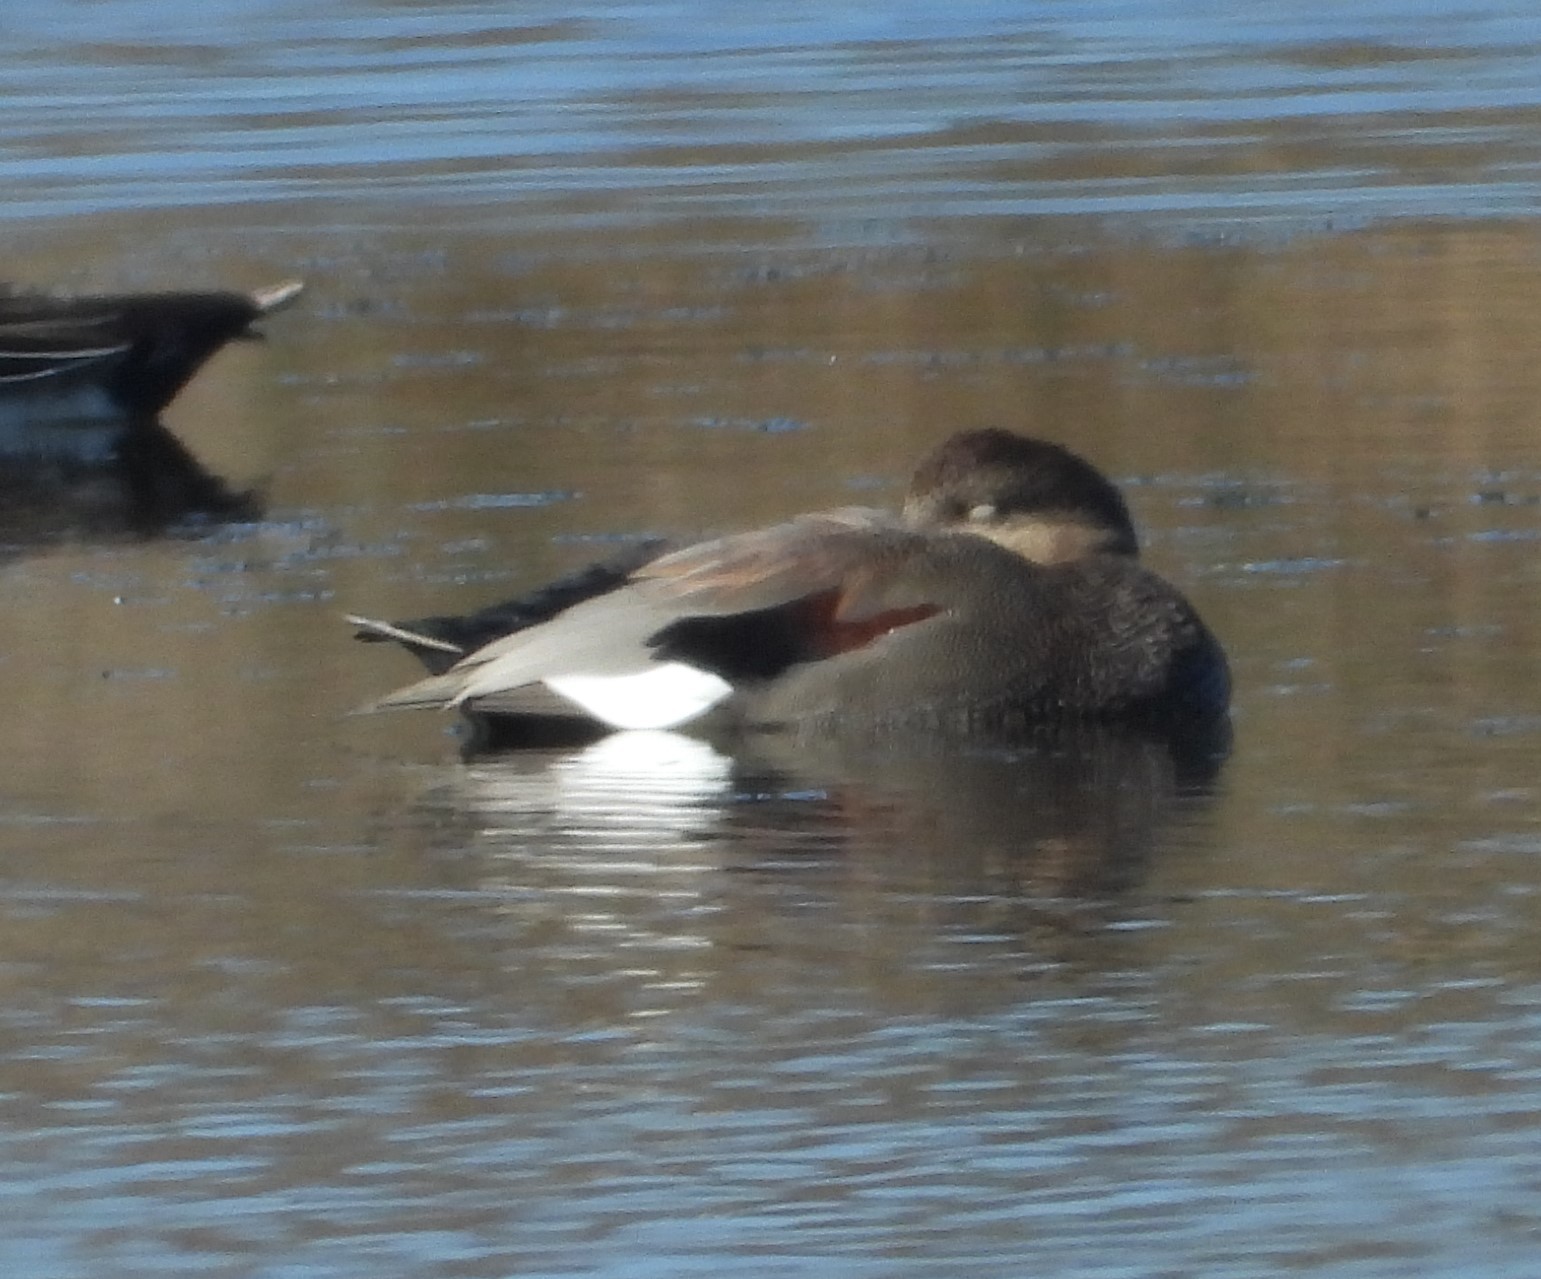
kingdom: Animalia
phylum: Chordata
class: Aves
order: Anseriformes
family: Anatidae
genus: Mareca
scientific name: Mareca strepera
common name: Gadwall
